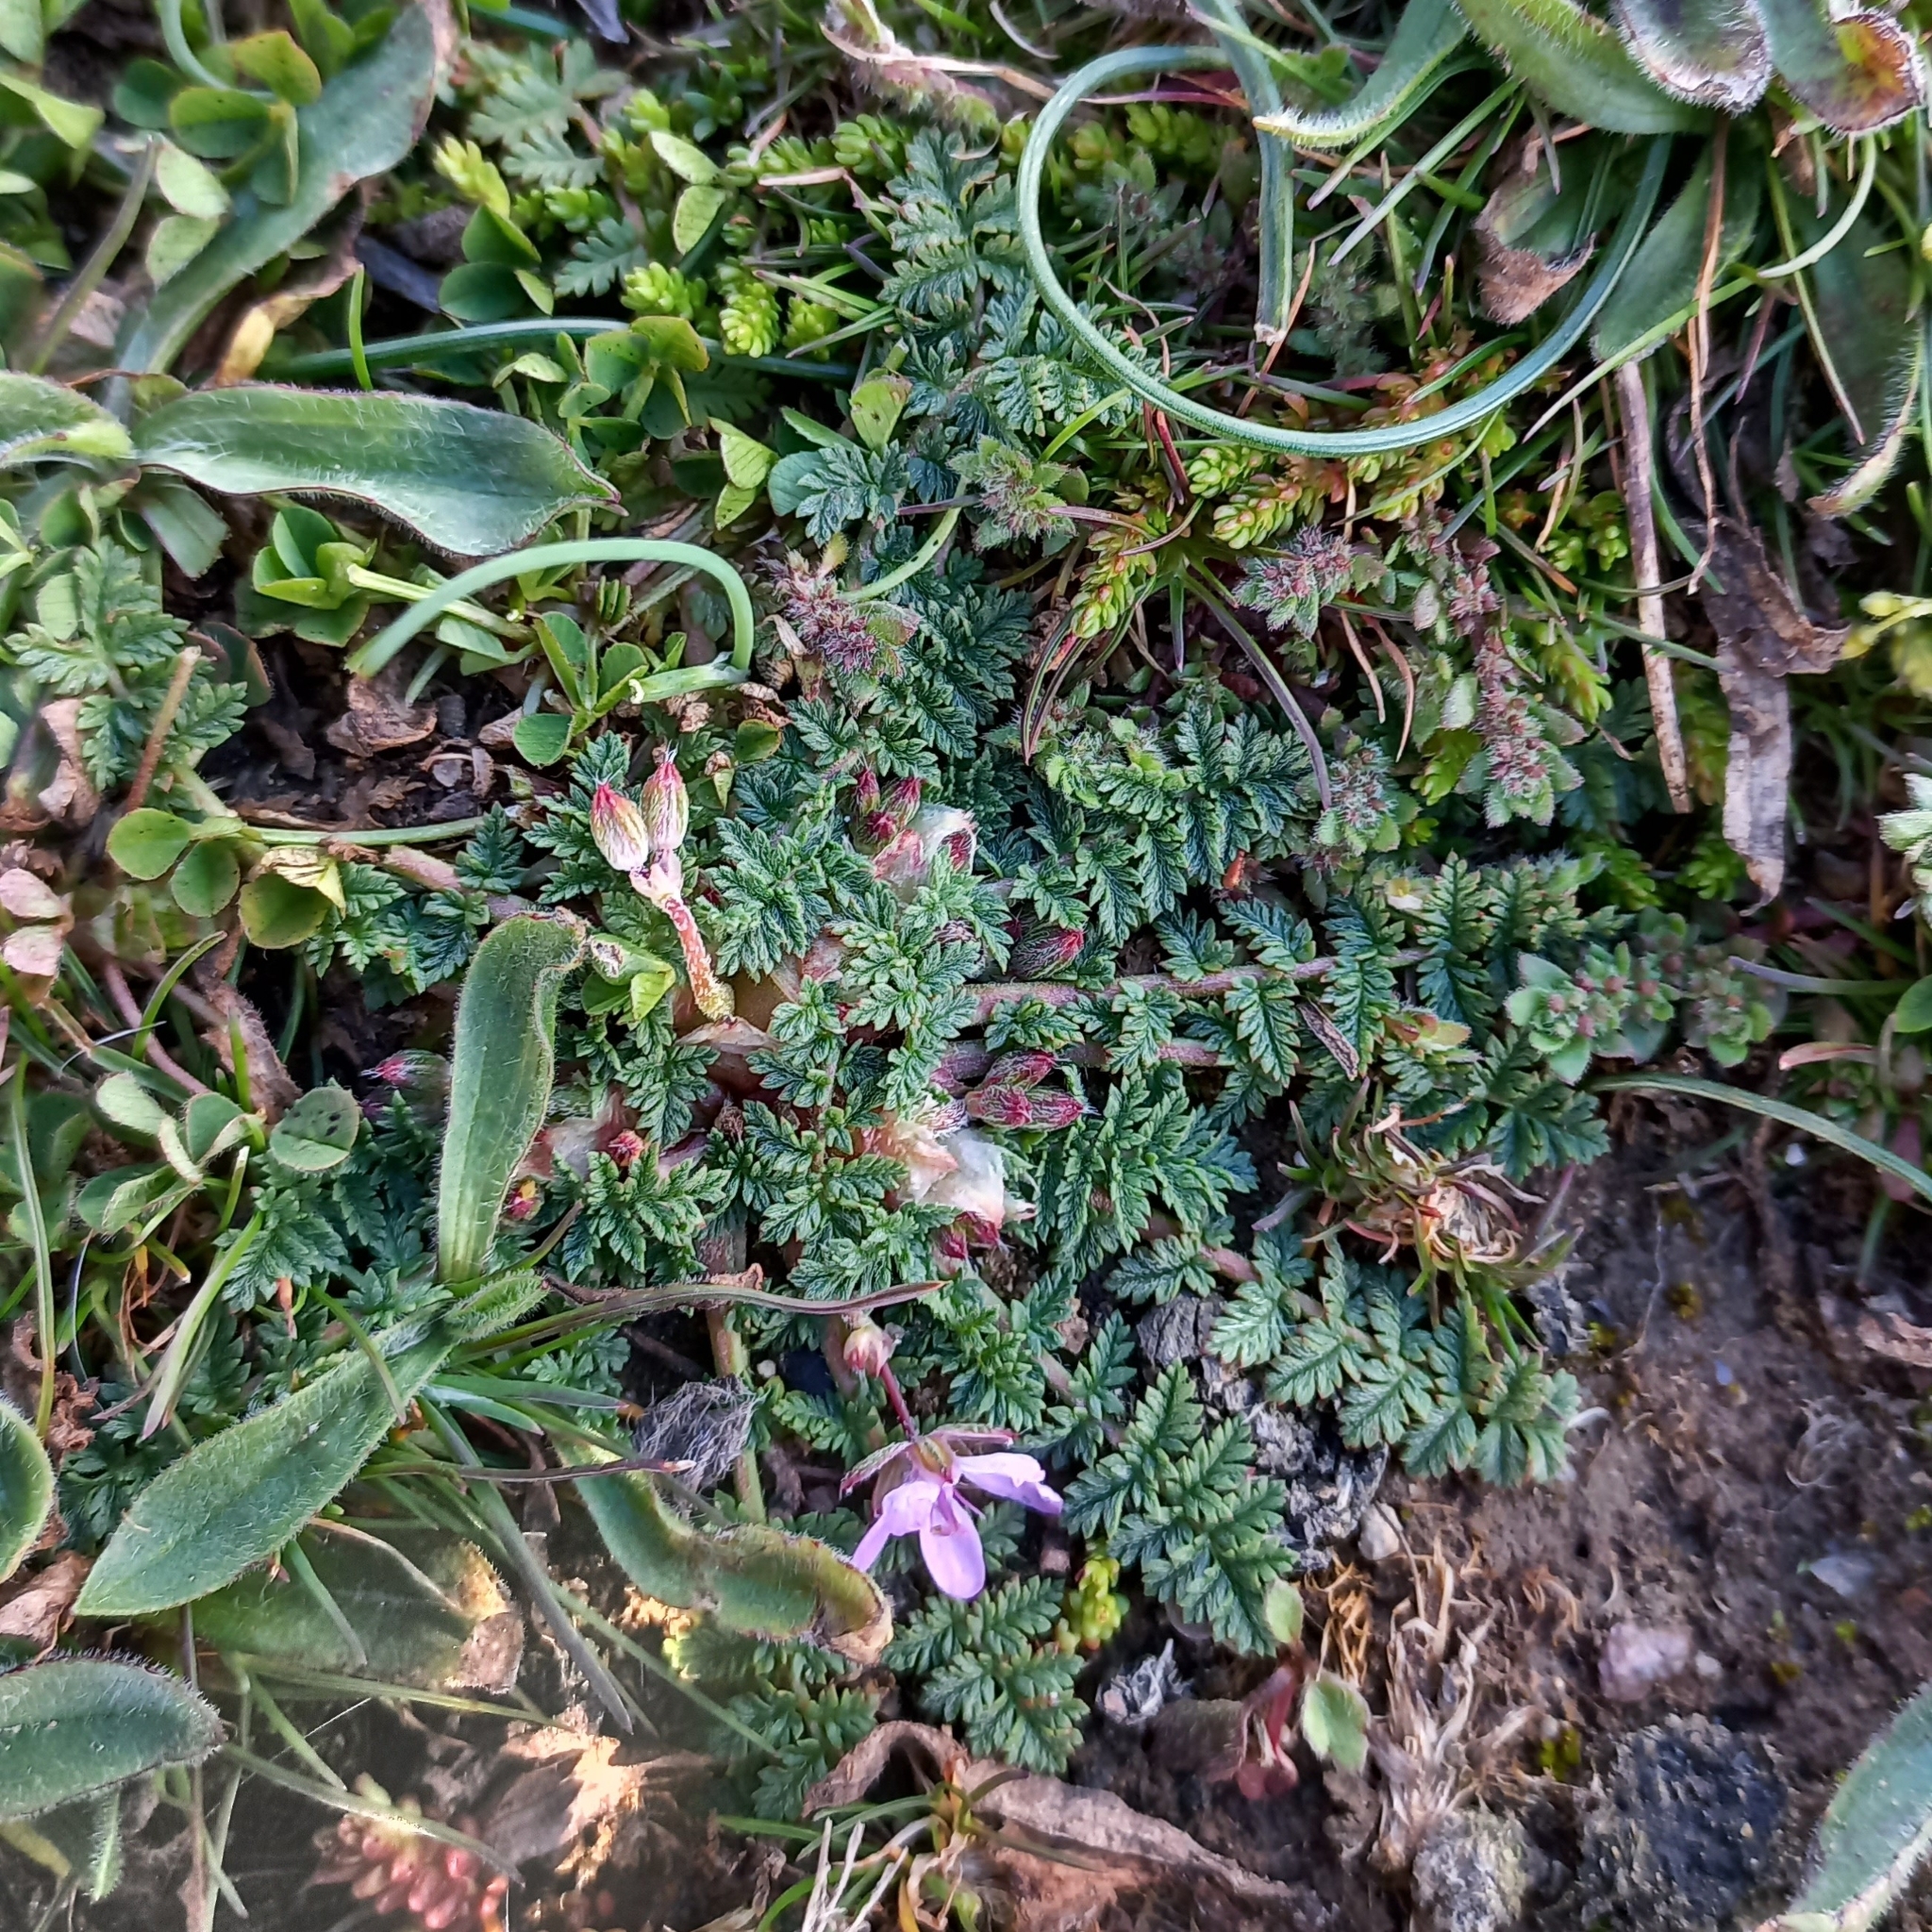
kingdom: Plantae
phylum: Tracheophyta
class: Magnoliopsida
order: Geraniales
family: Geraniaceae
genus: Erodium
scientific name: Erodium cicutarium
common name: Common stork's-bill
